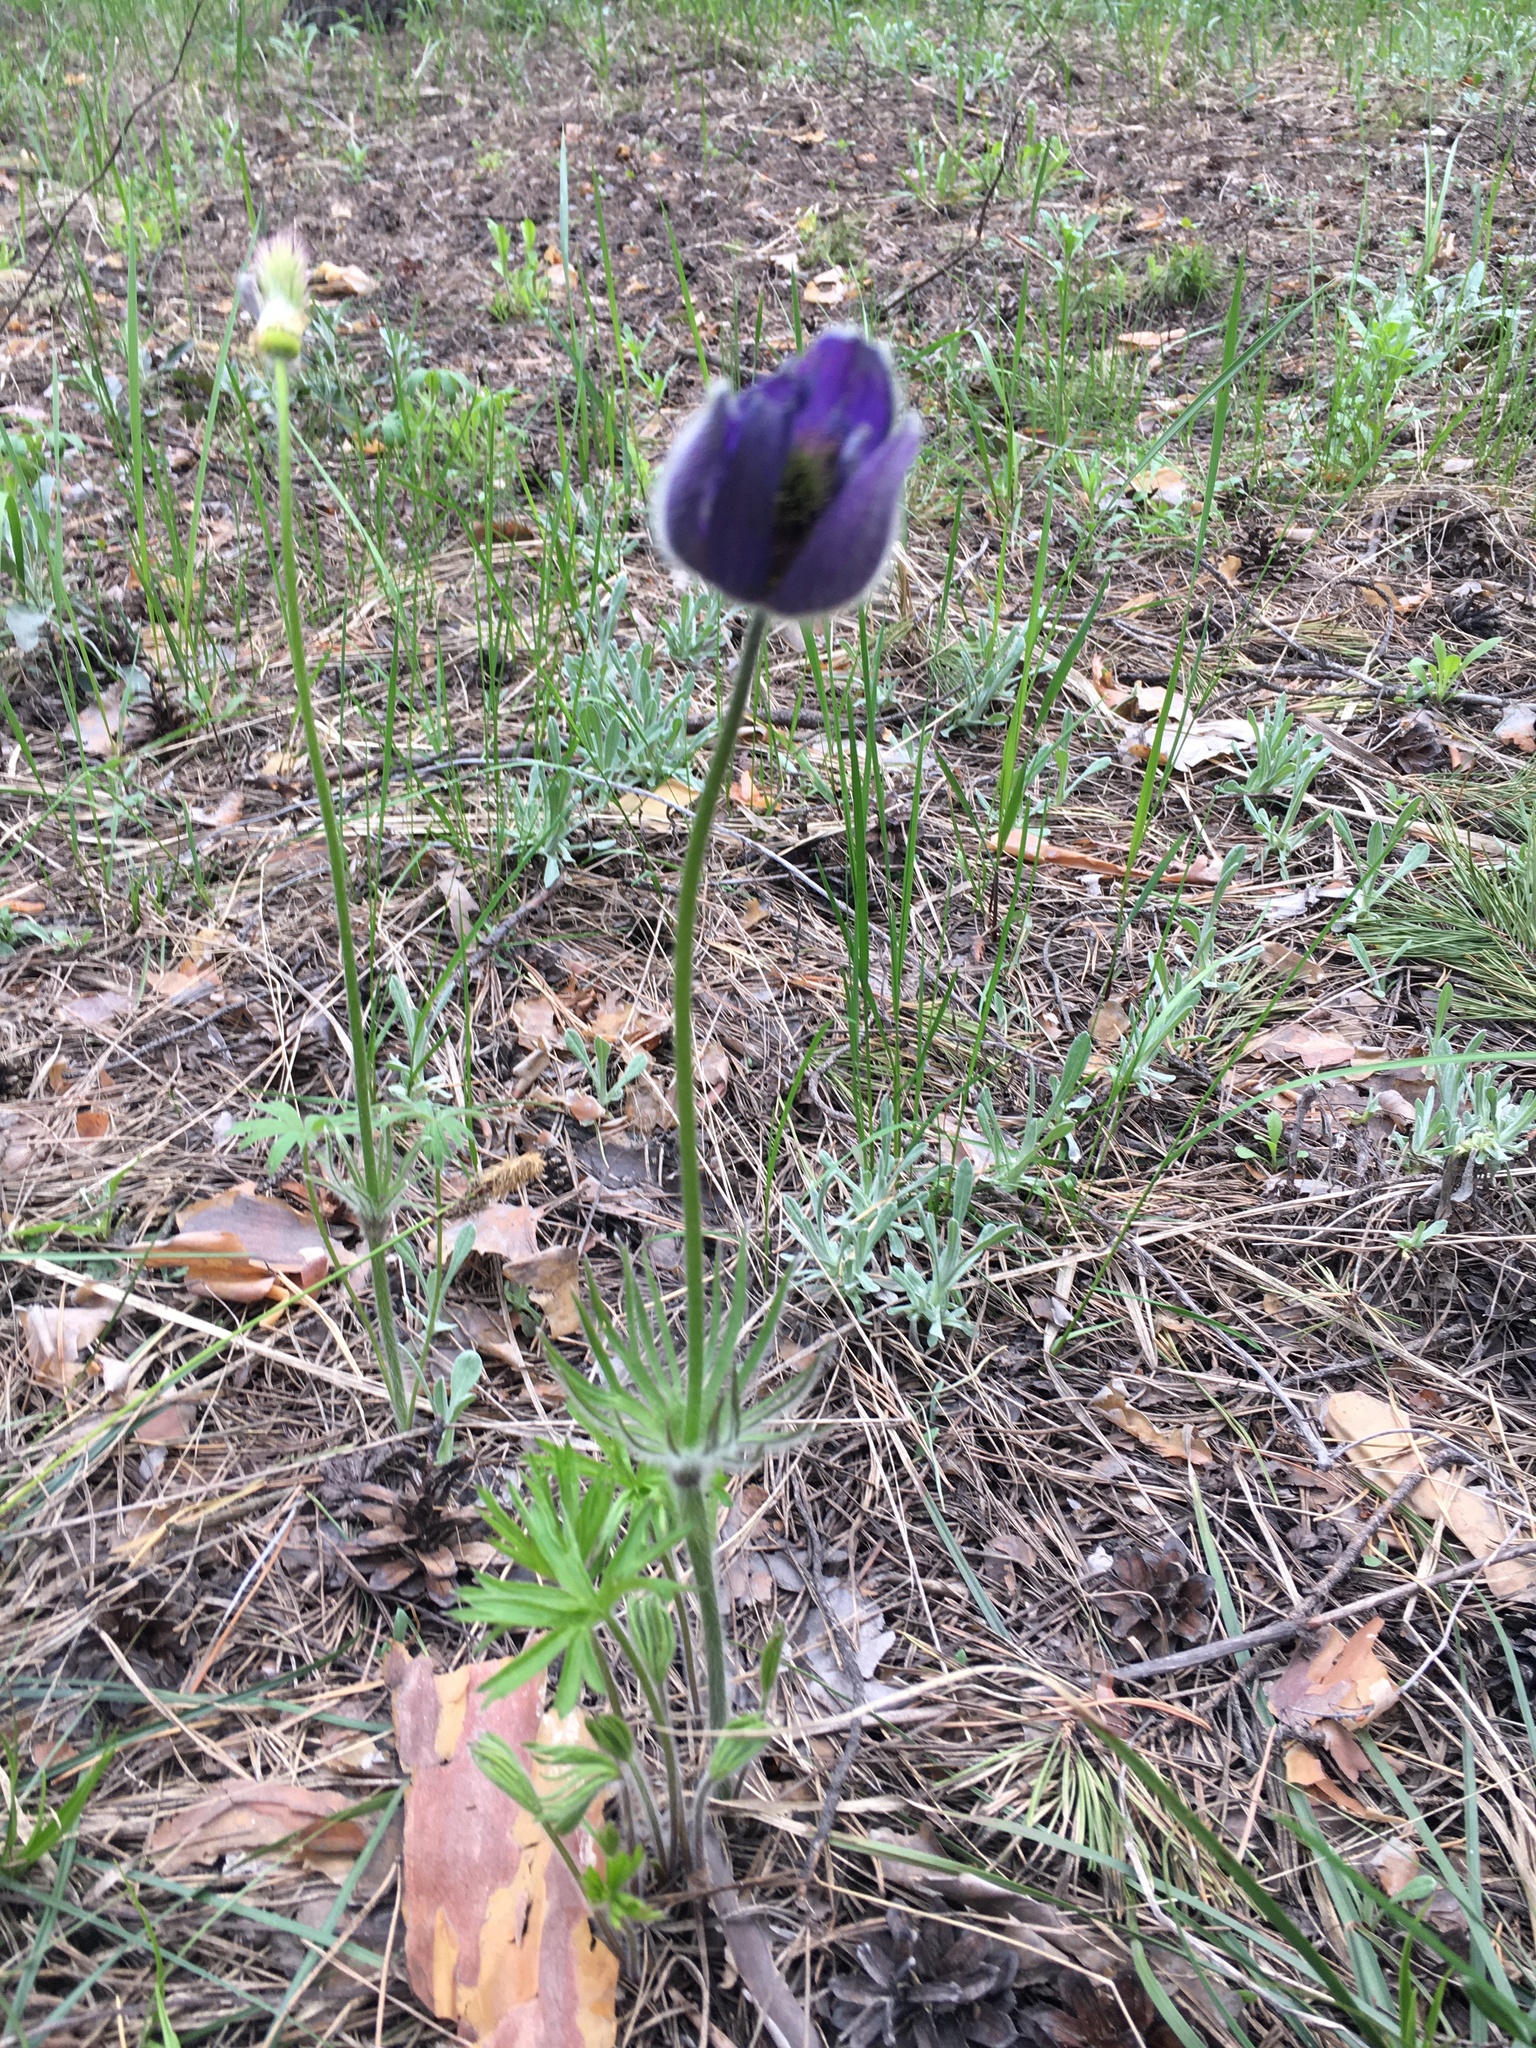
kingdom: Plantae
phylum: Tracheophyta
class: Magnoliopsida
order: Ranunculales
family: Ranunculaceae
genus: Pulsatilla
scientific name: Pulsatilla patens
